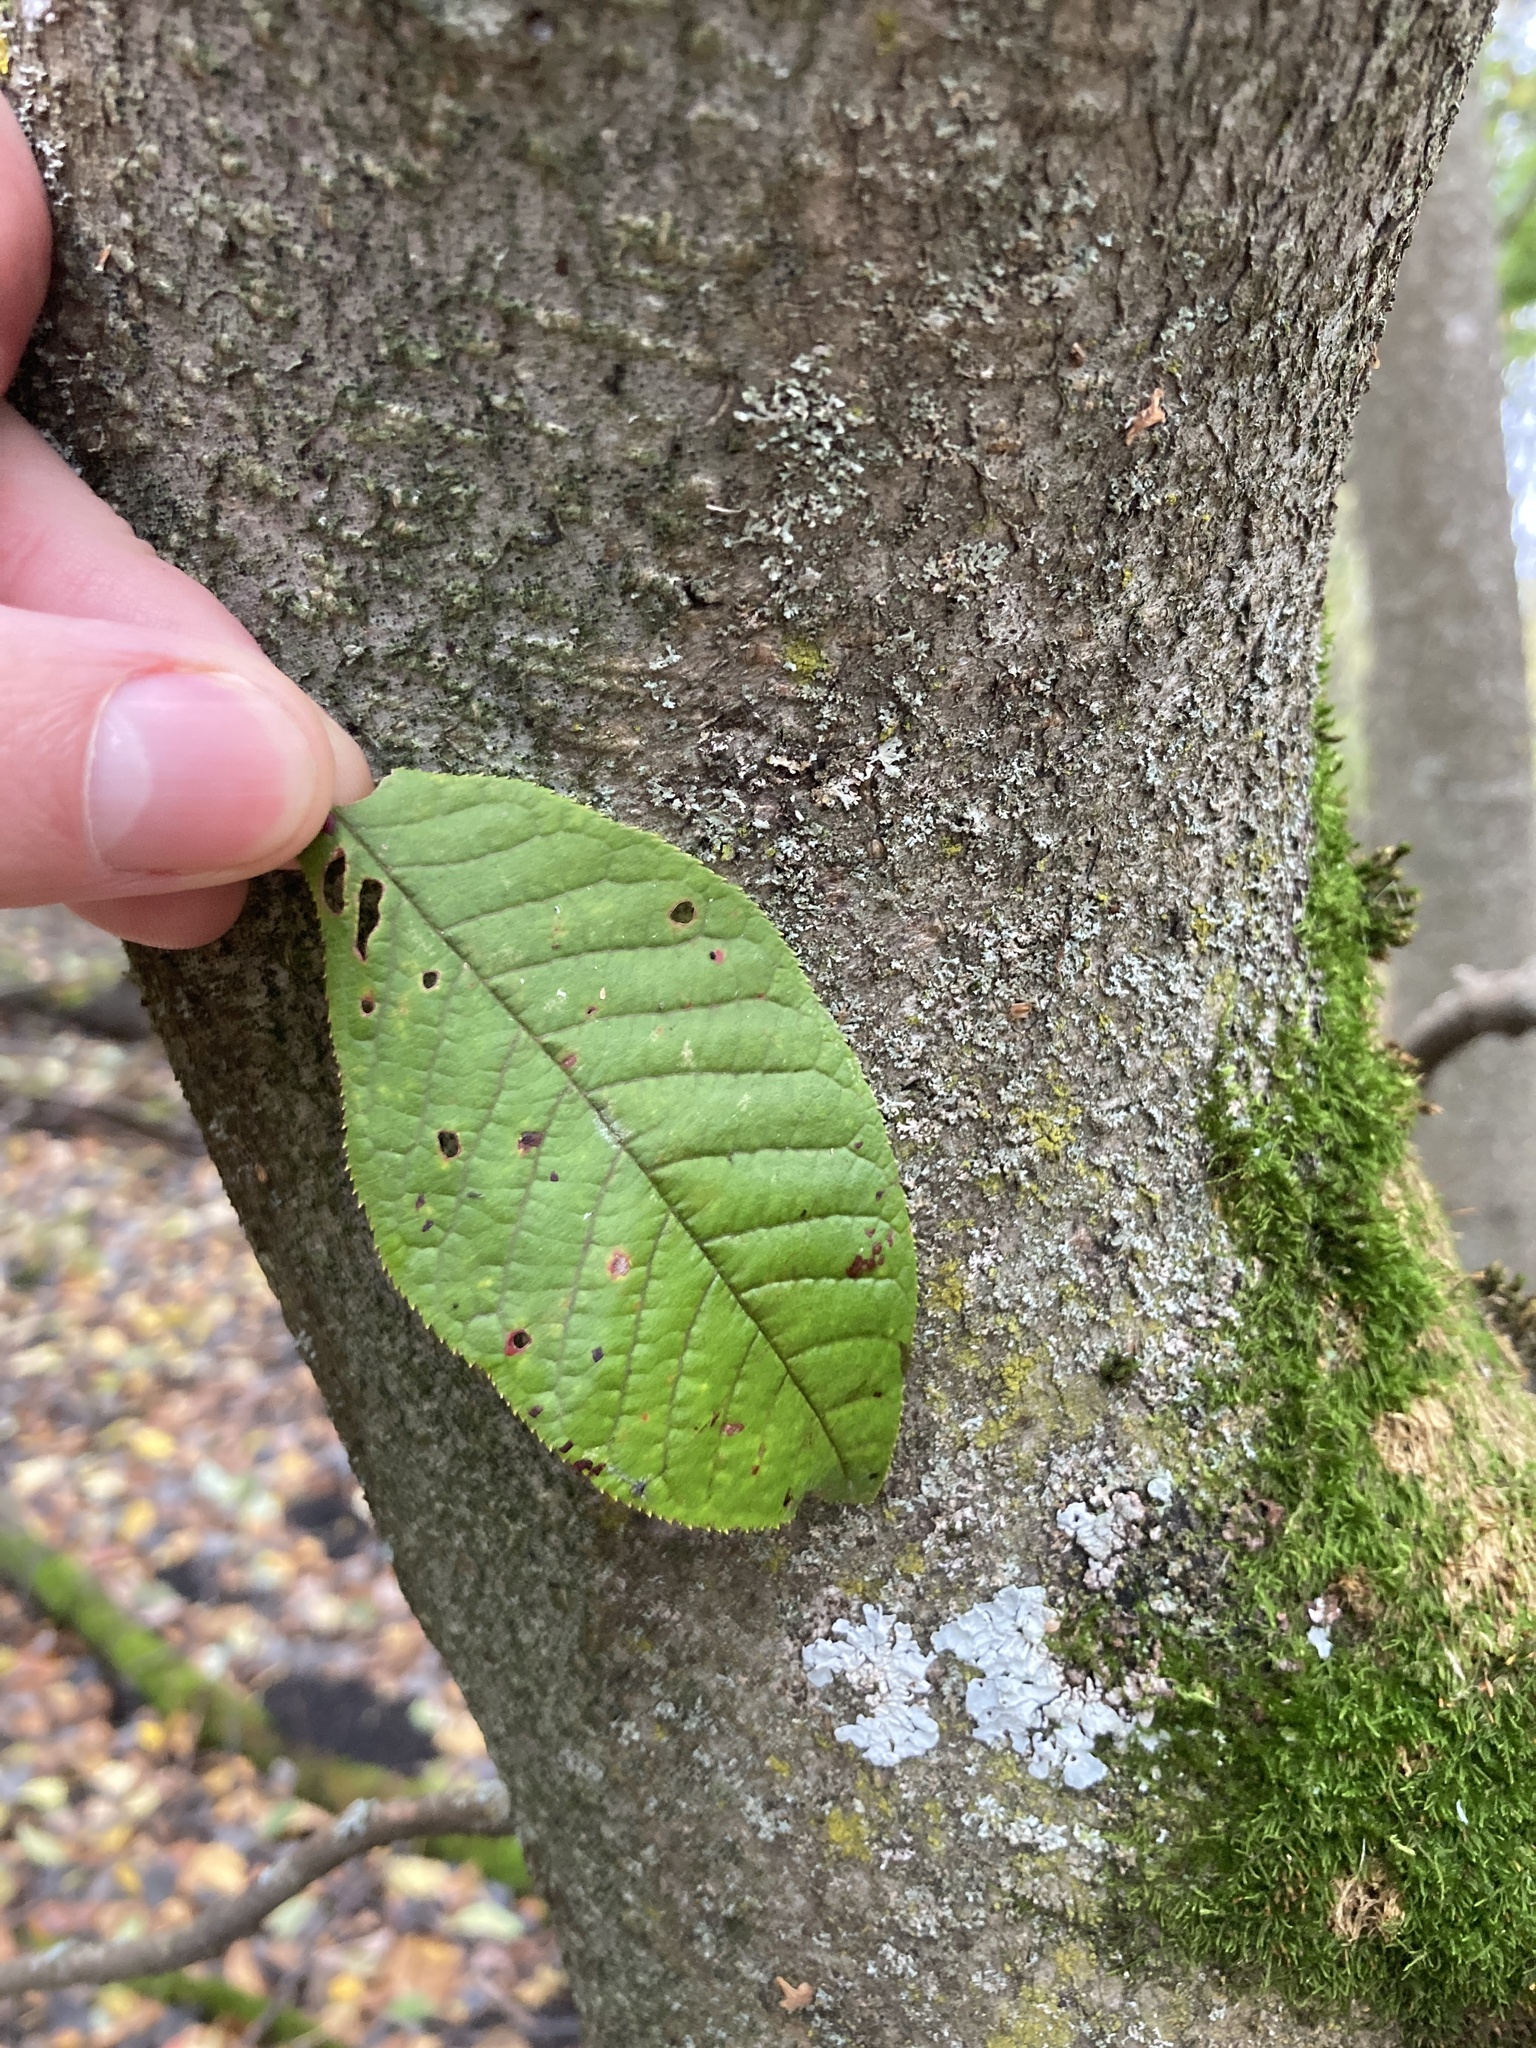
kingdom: Plantae
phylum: Tracheophyta
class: Magnoliopsida
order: Rosales
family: Rosaceae
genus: Prunus
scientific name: Prunus padus
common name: Bird cherry
